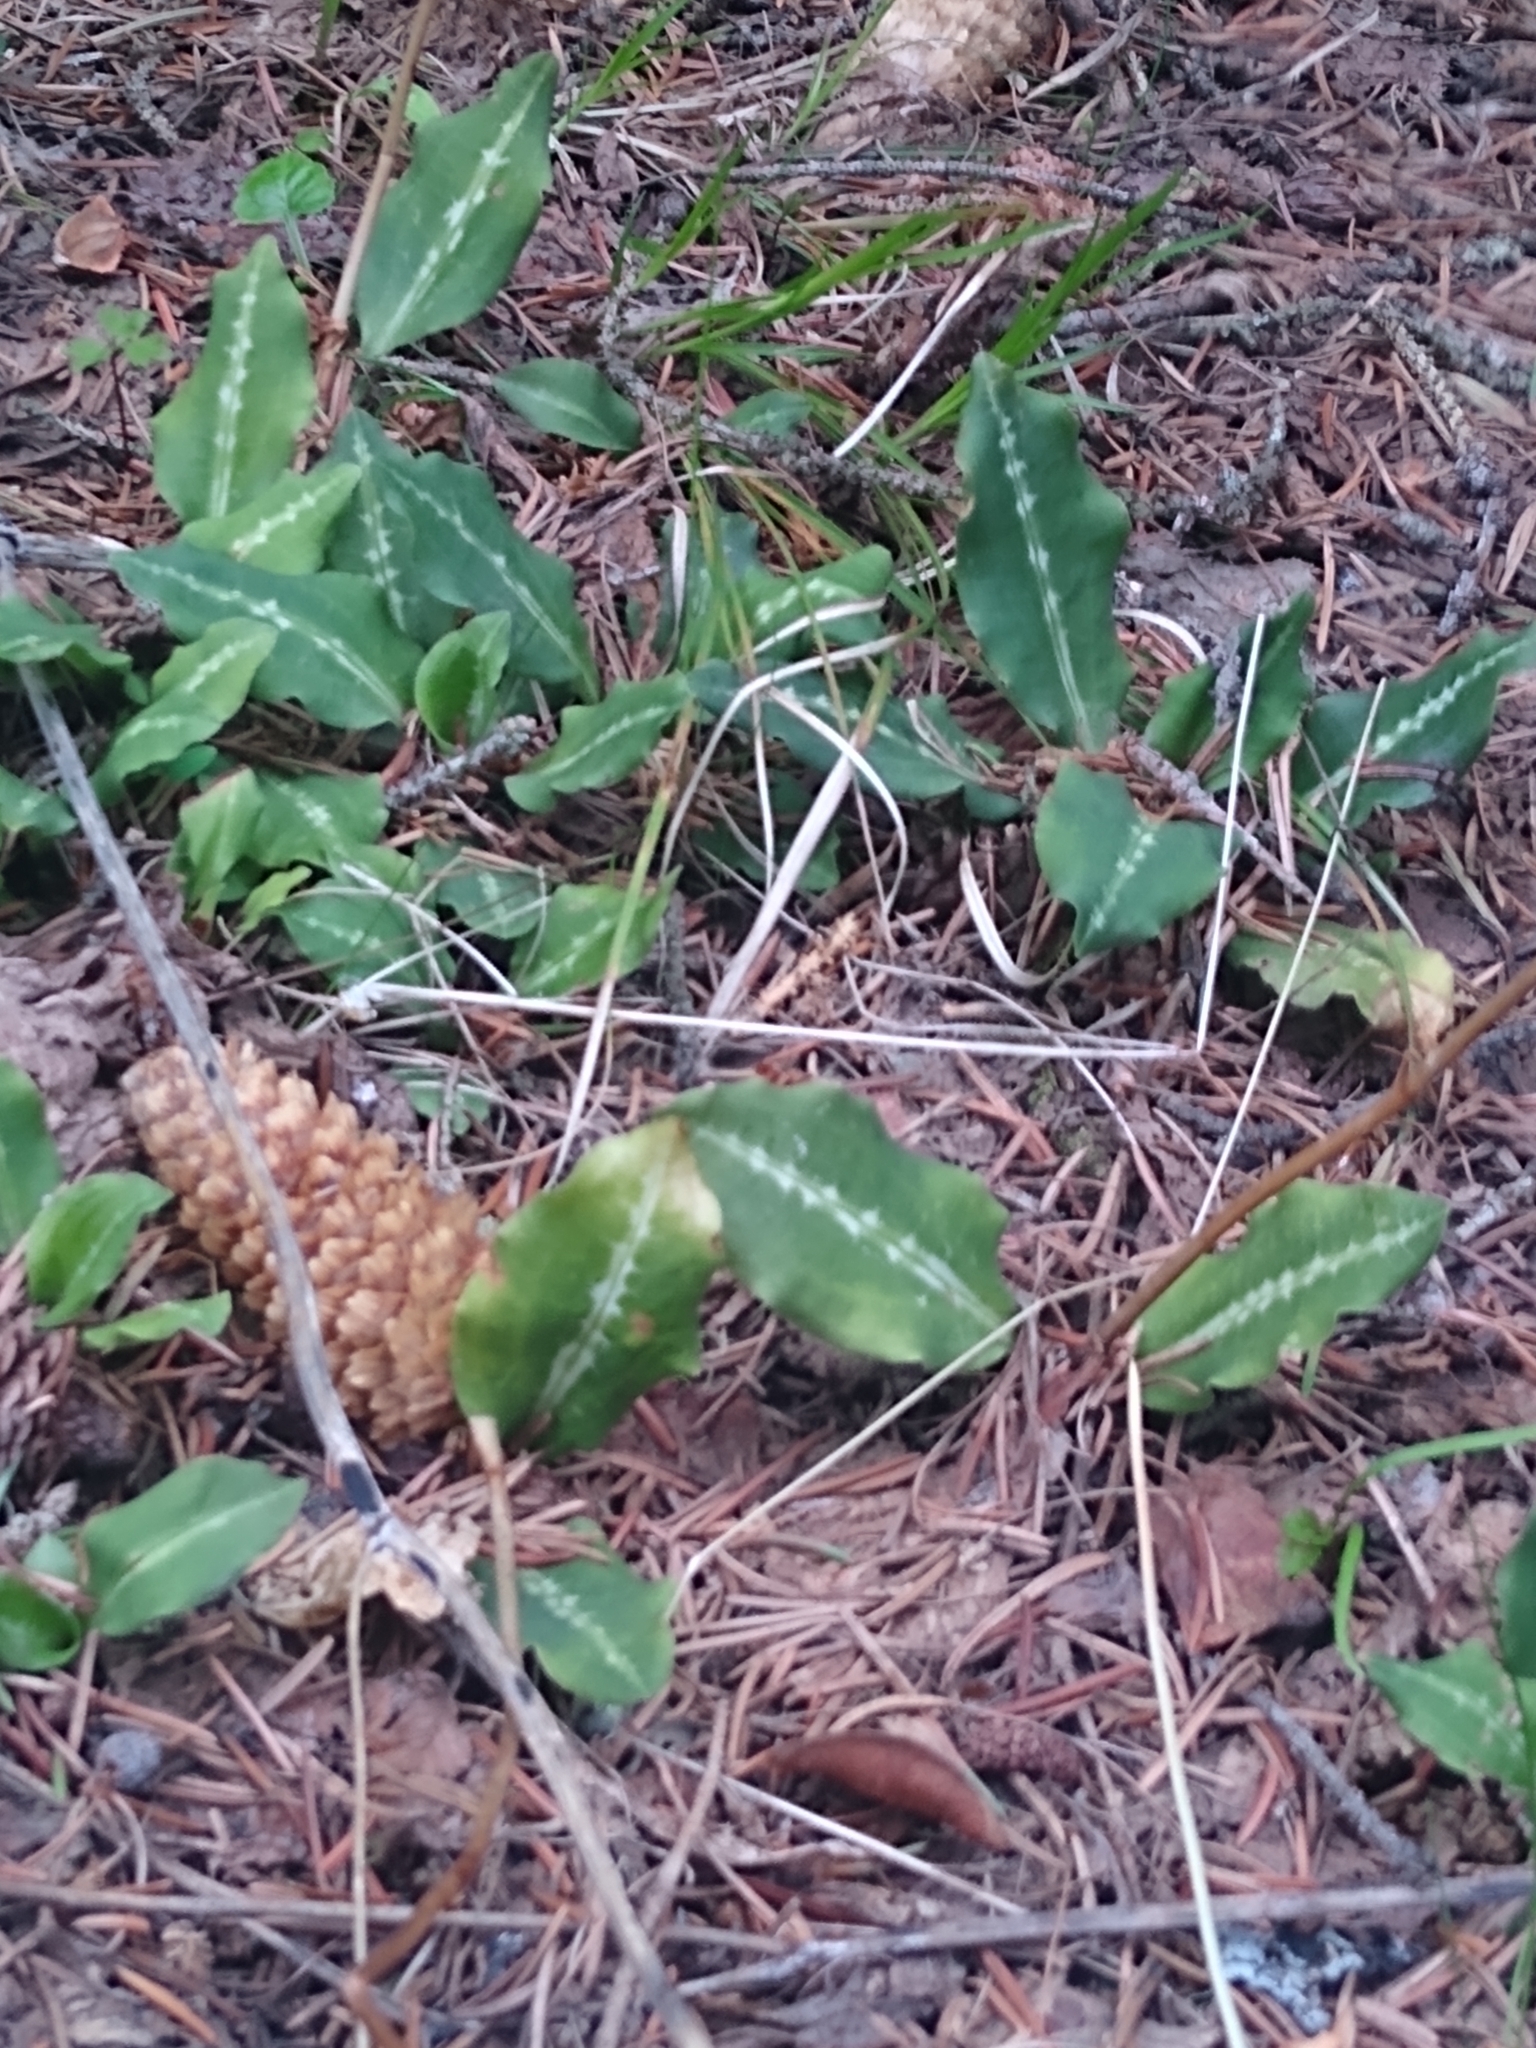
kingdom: Plantae
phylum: Tracheophyta
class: Liliopsida
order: Asparagales
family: Orchidaceae
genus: Goodyera
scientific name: Goodyera oblongifolia
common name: Giant rattlesnake-plantain
